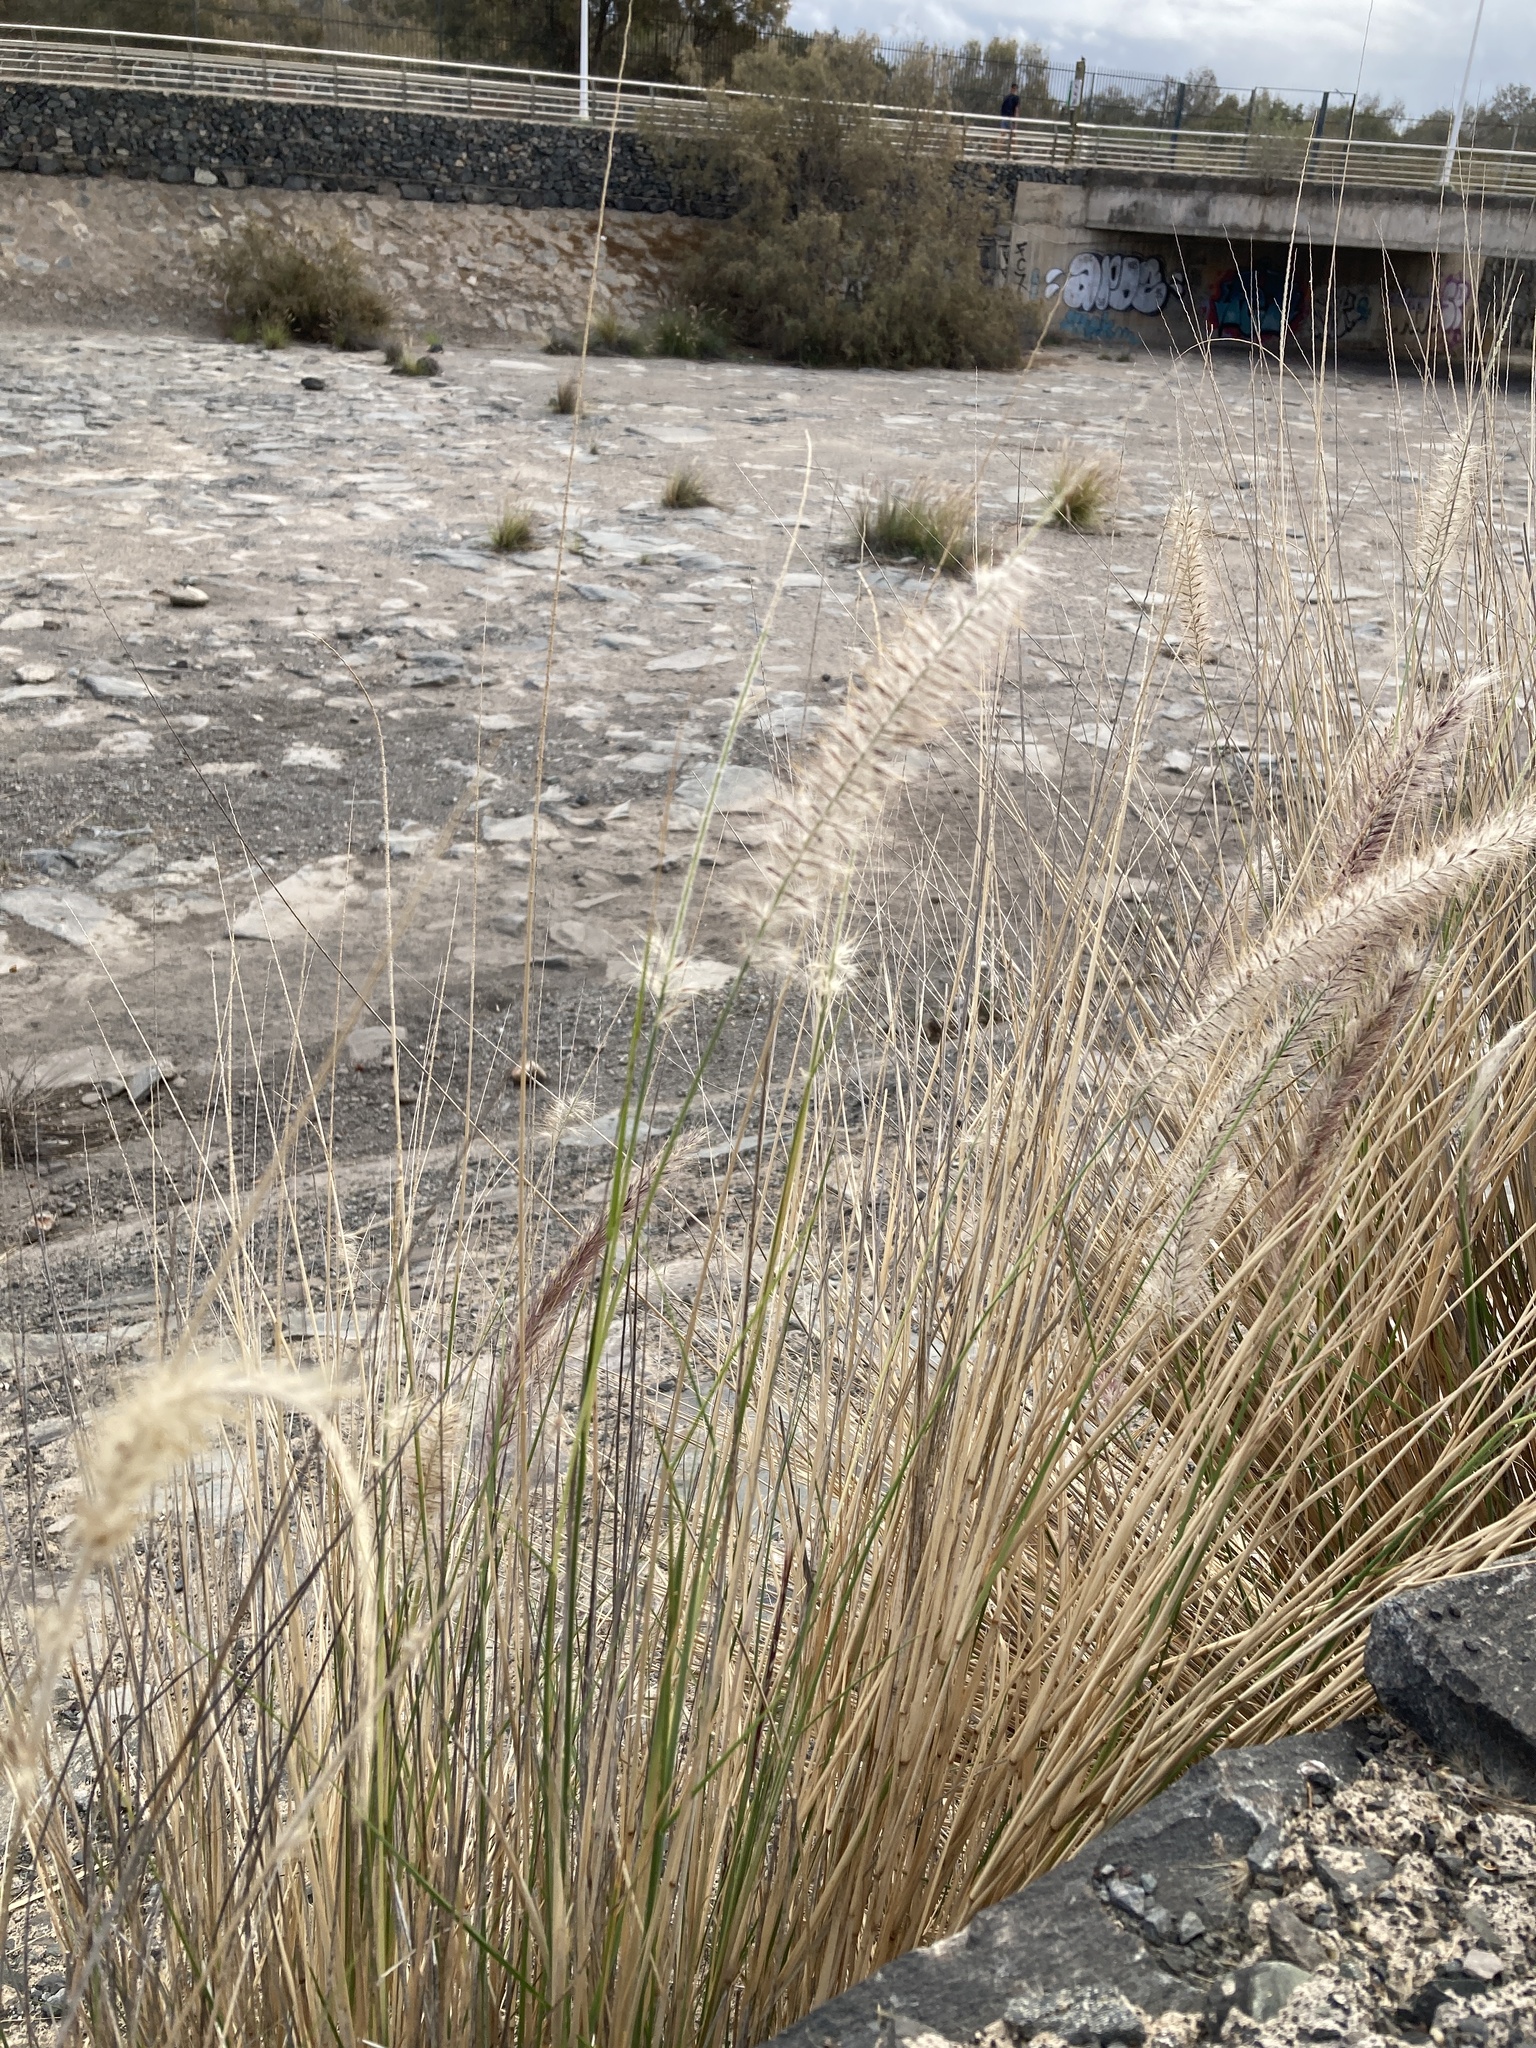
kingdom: Plantae
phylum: Tracheophyta
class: Liliopsida
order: Poales
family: Poaceae
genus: Cenchrus
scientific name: Cenchrus setaceus
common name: Crimson fountaingrass
